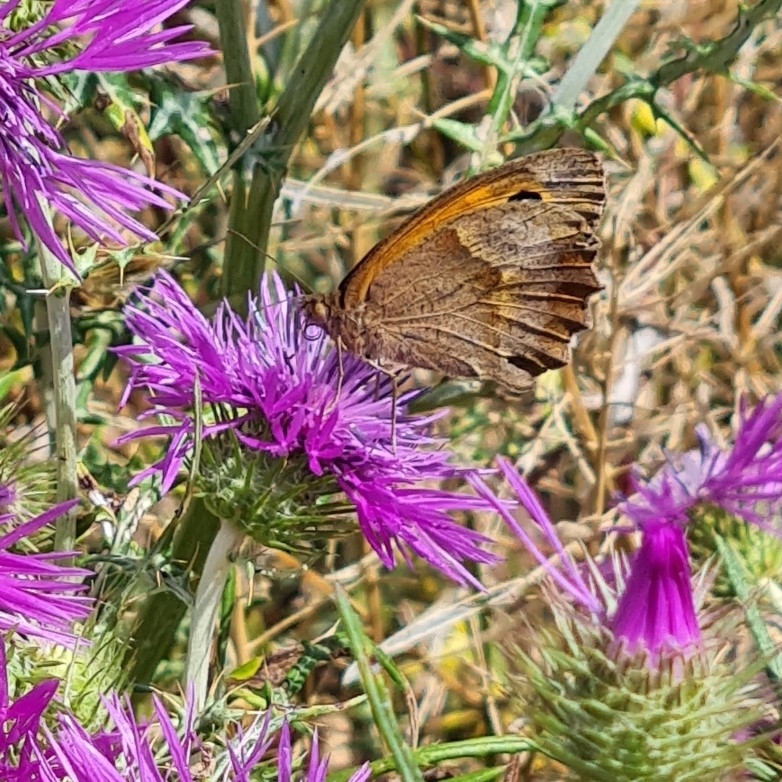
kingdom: Animalia
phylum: Arthropoda
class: Insecta
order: Lepidoptera
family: Nymphalidae
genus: Maniola
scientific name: Maniola jurtina
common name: Meadow brown
